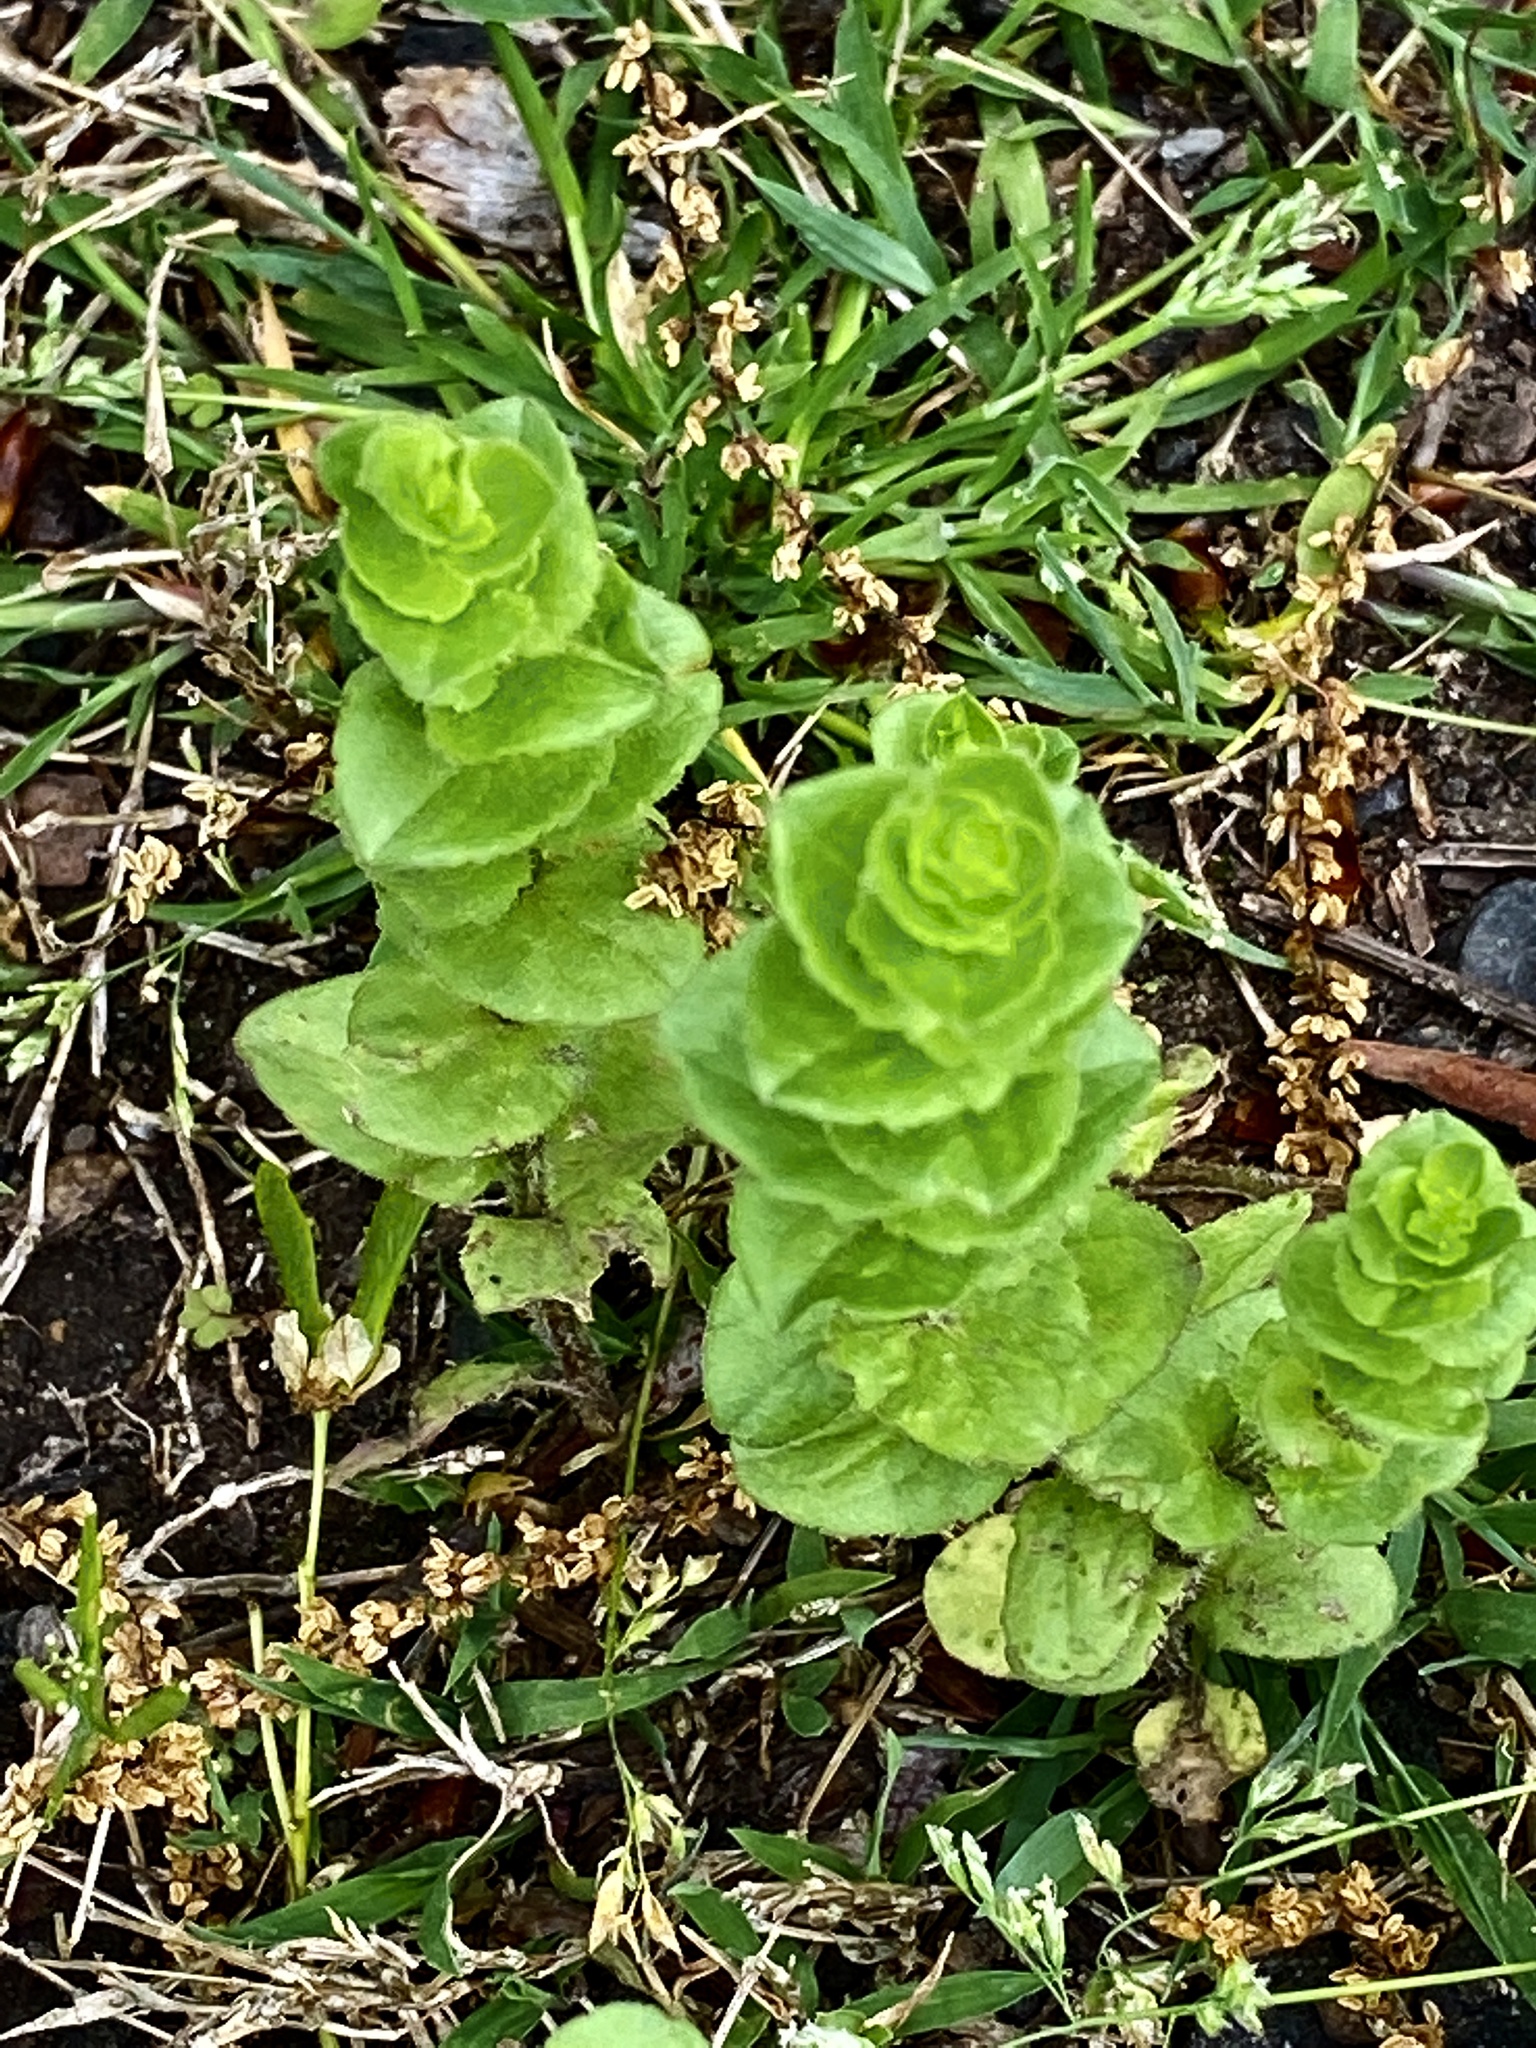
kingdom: Plantae
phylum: Tracheophyta
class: Magnoliopsida
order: Asterales
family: Campanulaceae
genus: Triodanis
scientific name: Triodanis perfoliata
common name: Clasping venus' looking-glass
